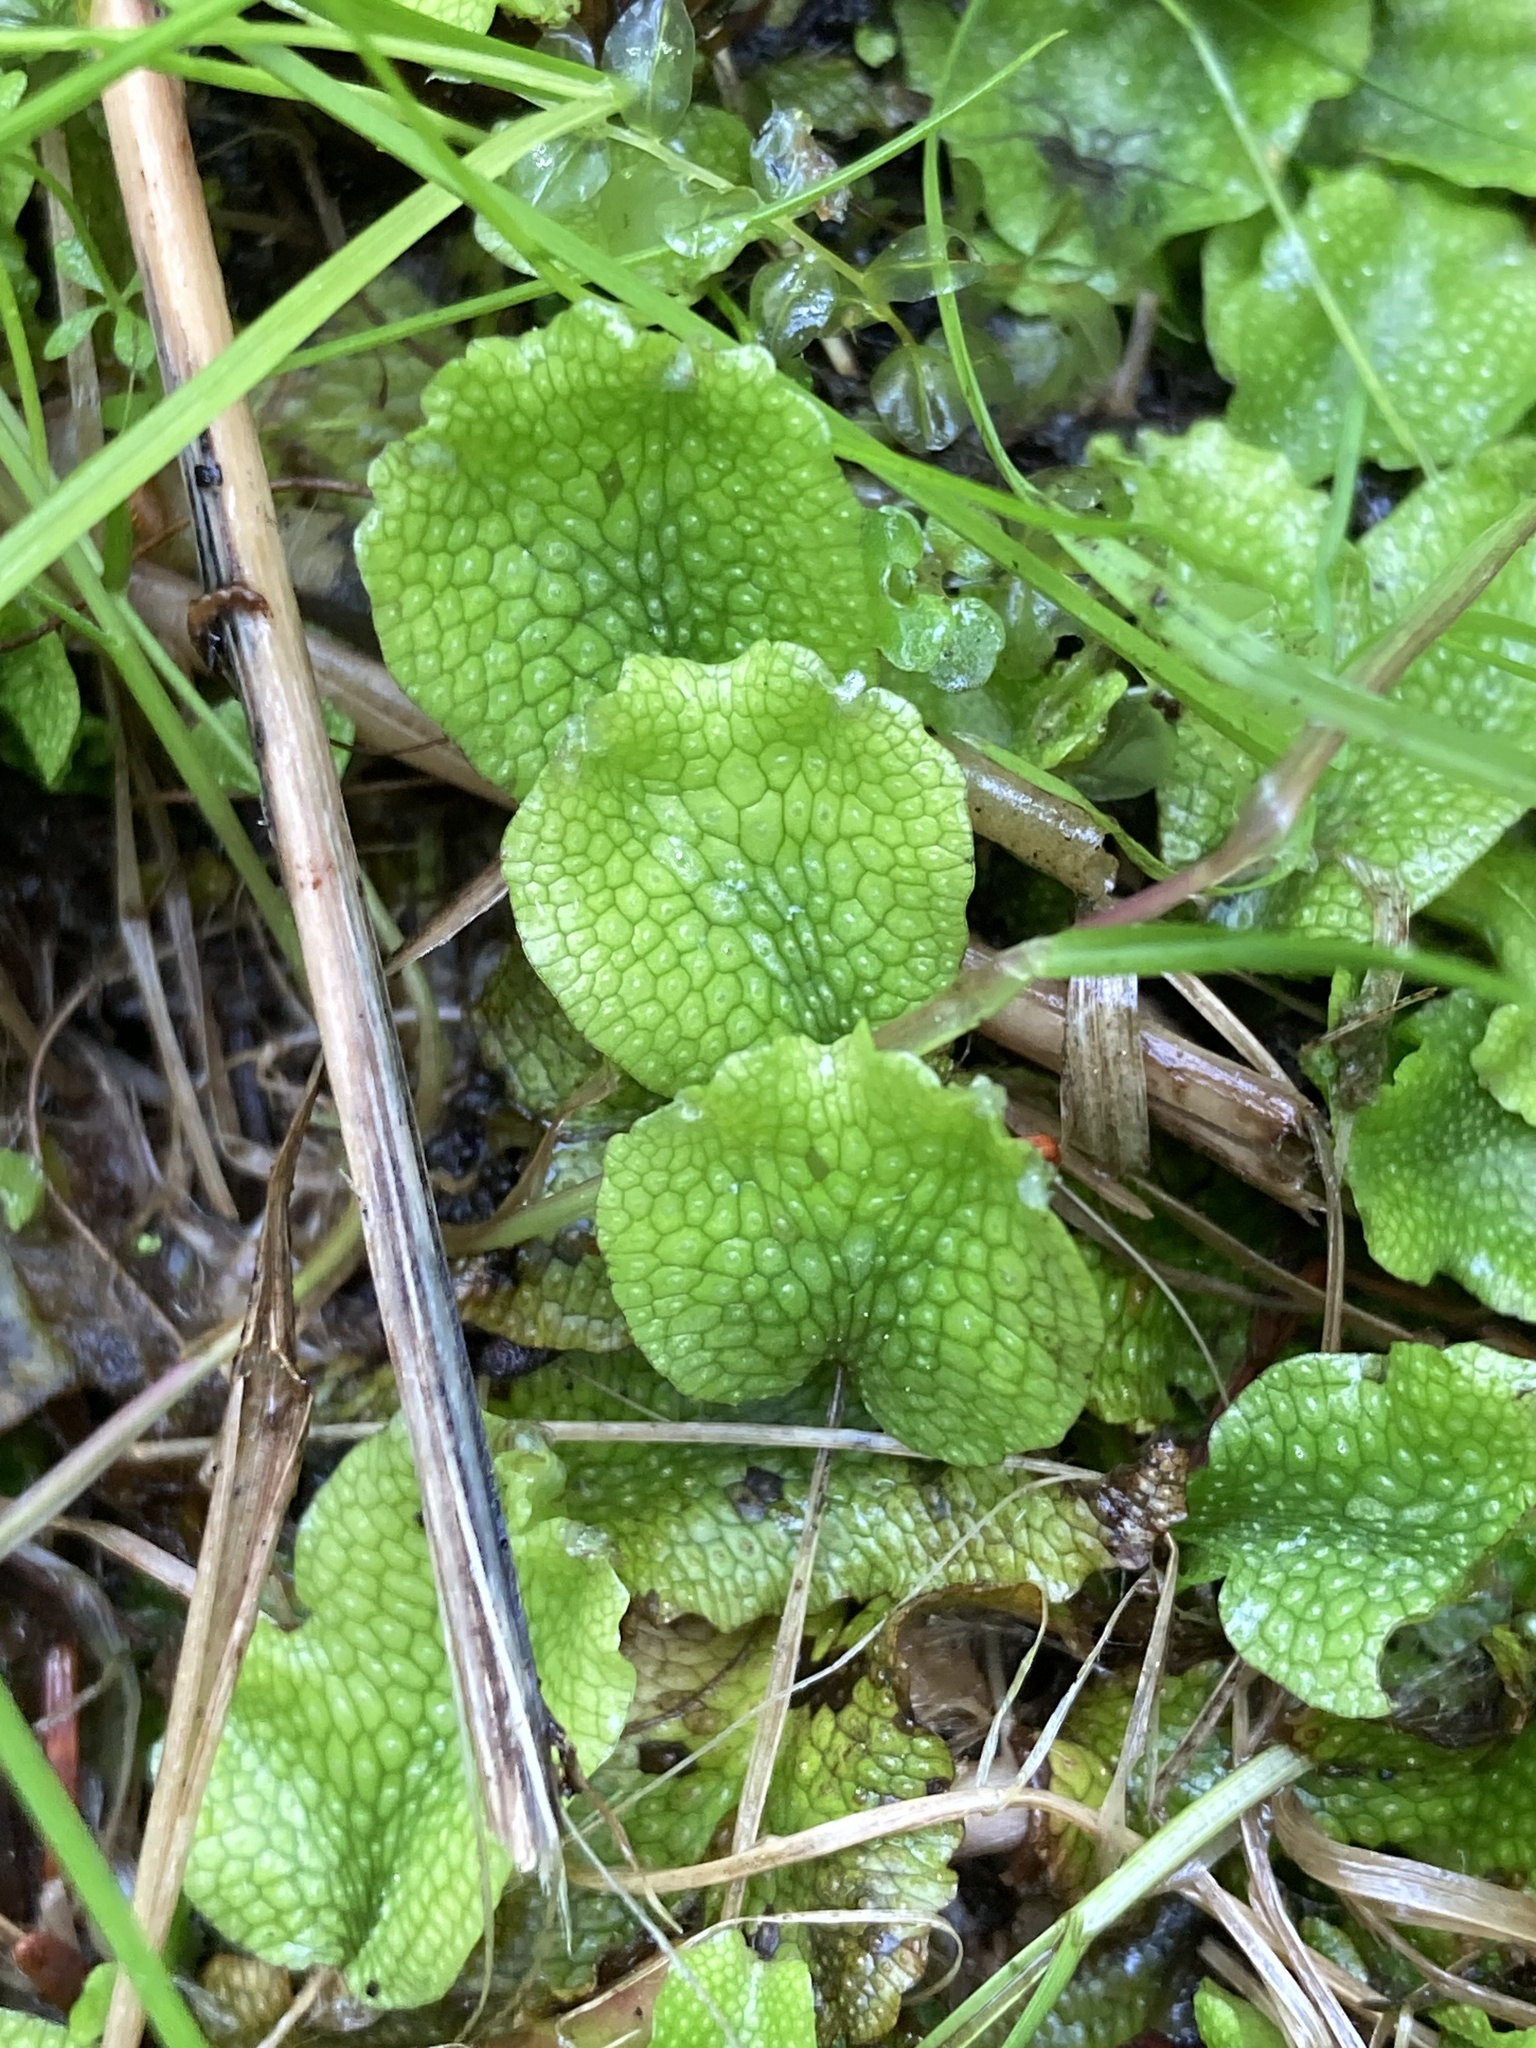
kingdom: Plantae
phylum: Marchantiophyta
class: Marchantiopsida
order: Marchantiales
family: Conocephalaceae
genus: Conocephalum
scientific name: Conocephalum salebrosum
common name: Cat-tongue liverwort
